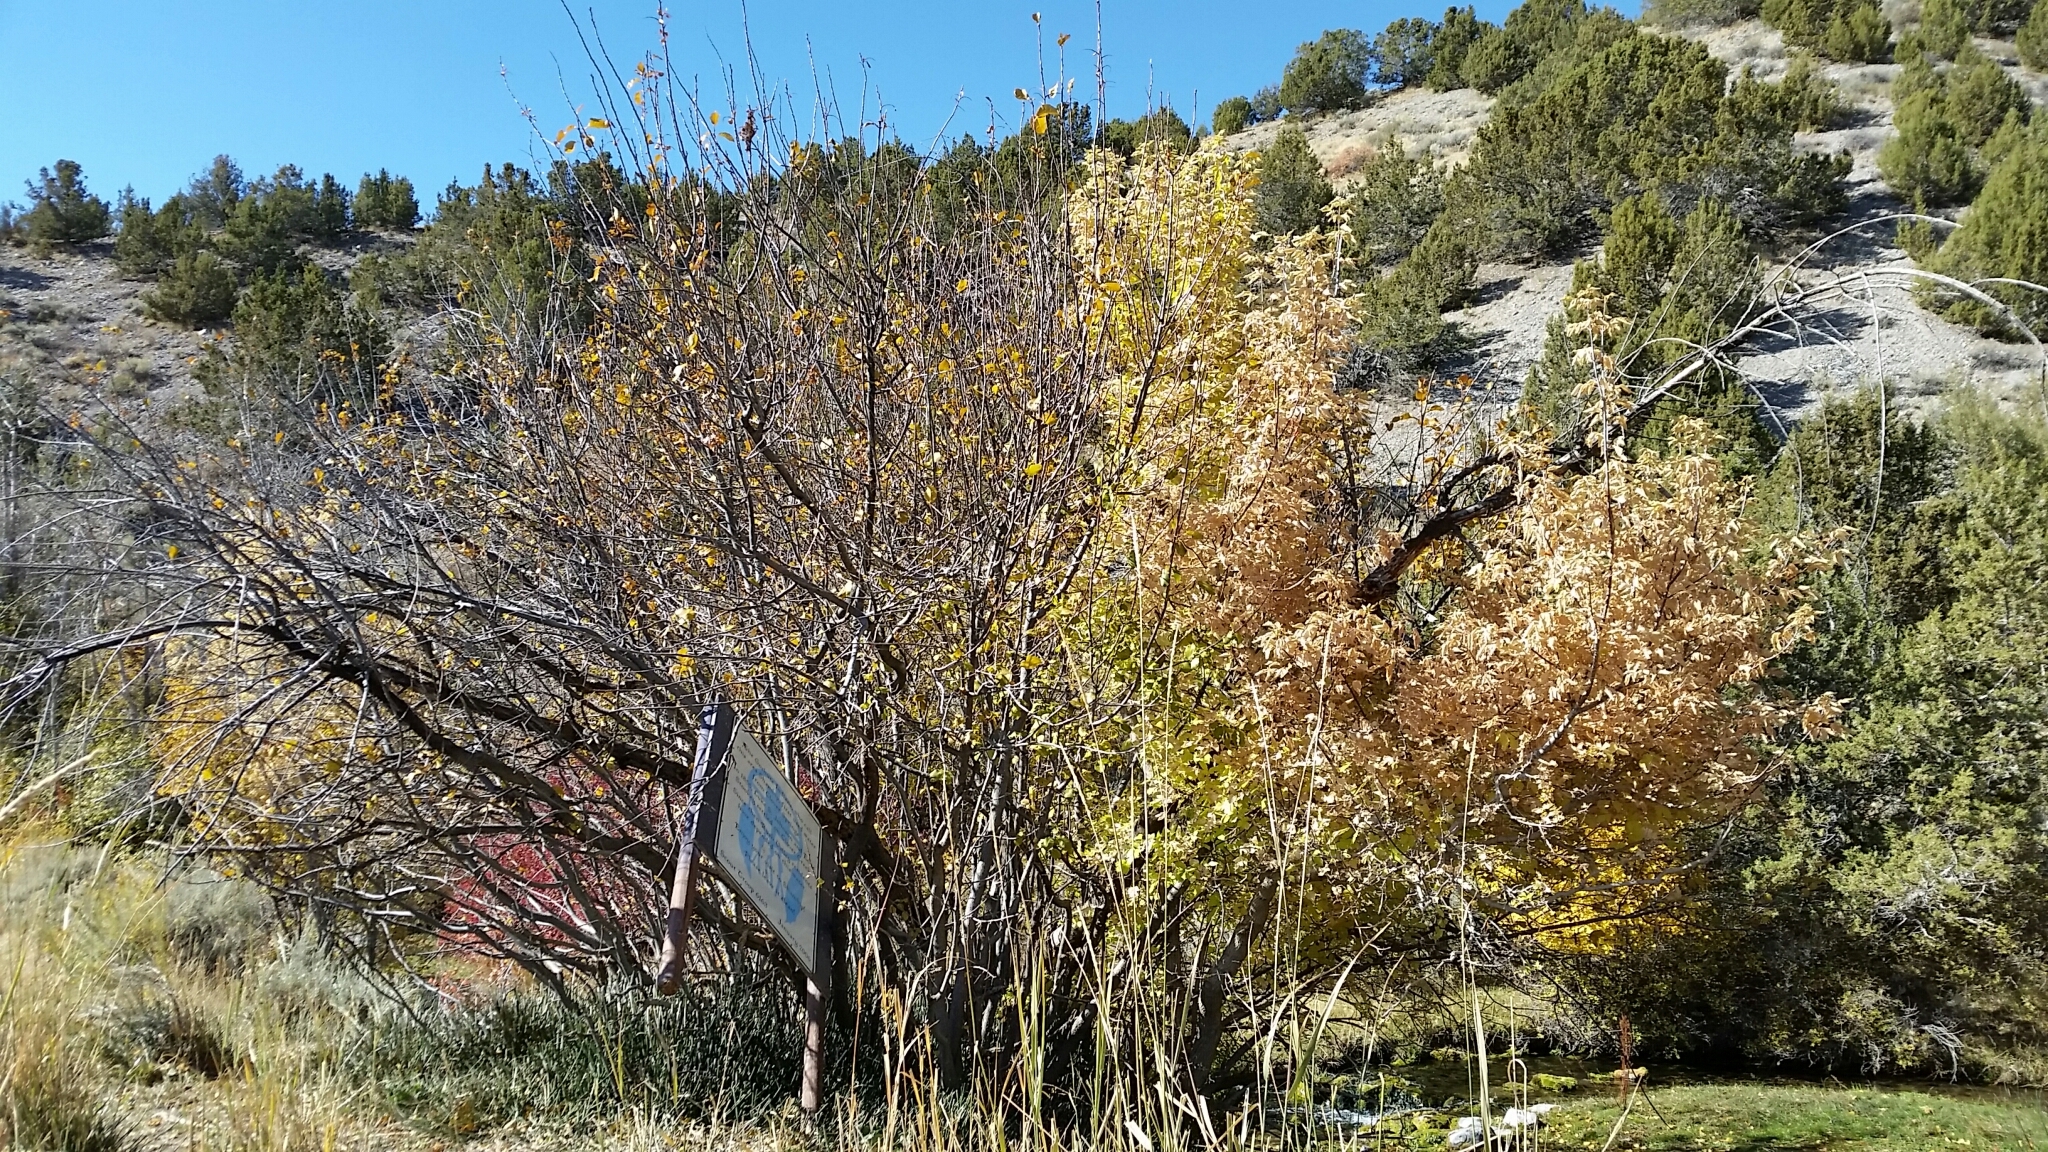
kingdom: Plantae
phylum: Tracheophyta
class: Magnoliopsida
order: Sapindales
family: Sapindaceae
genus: Acer
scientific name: Acer negundo
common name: Ashleaf maple
